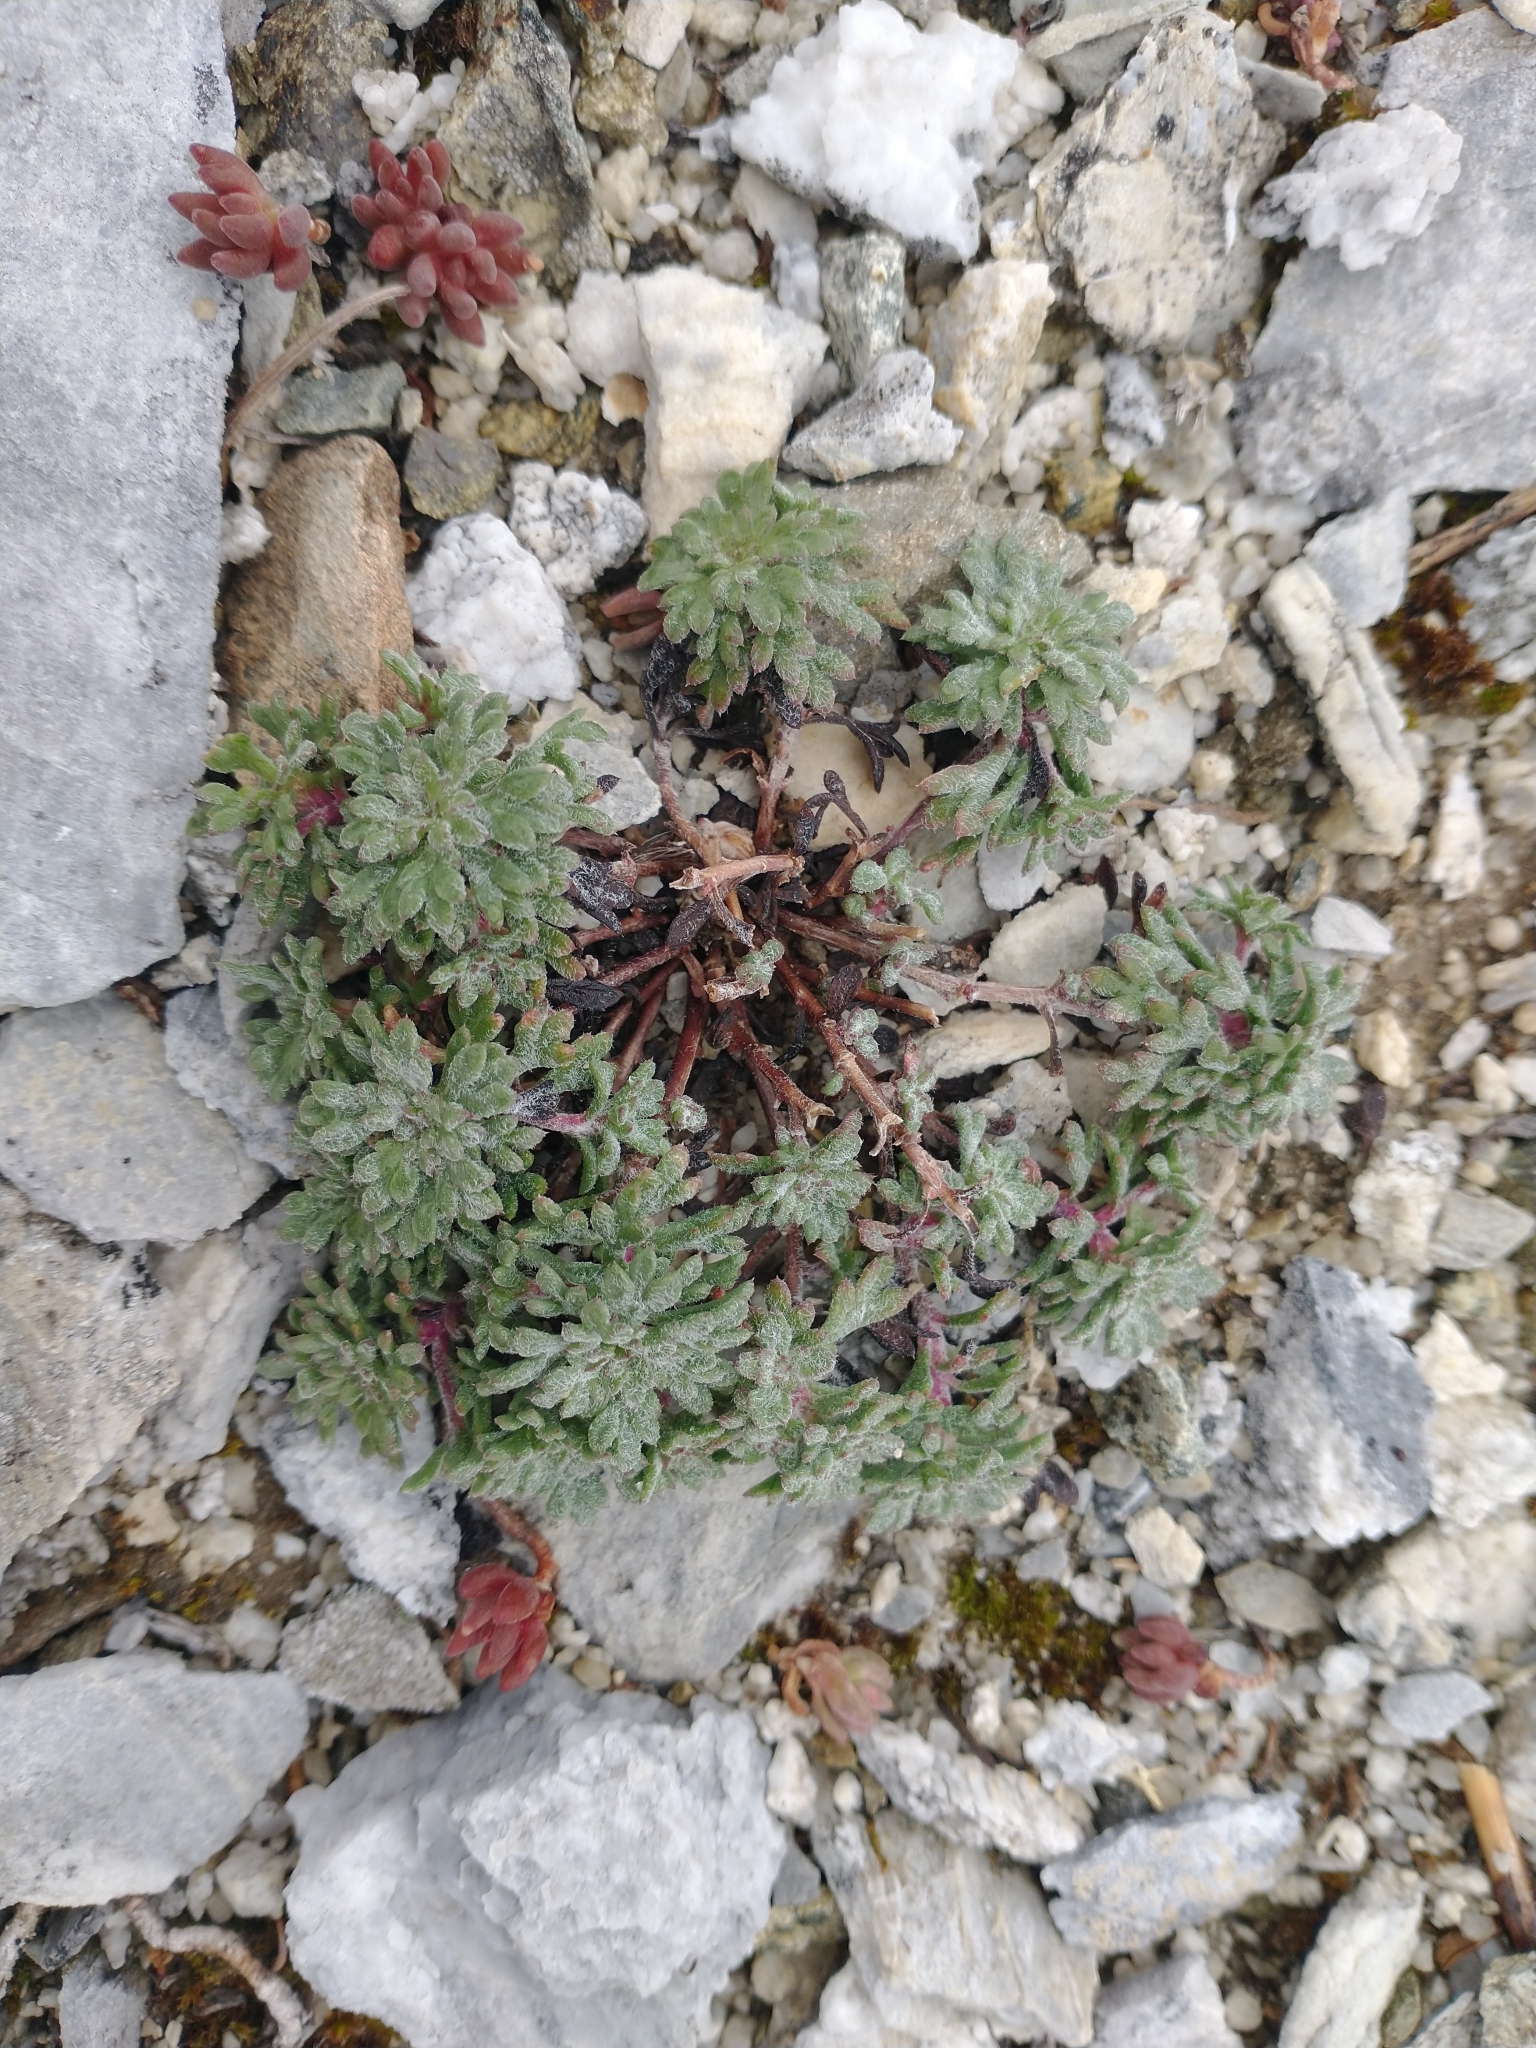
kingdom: Plantae
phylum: Tracheophyta
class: Magnoliopsida
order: Ericales
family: Polemoniaceae
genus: Ipomopsis
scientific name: Ipomopsis congesta
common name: Ball-head gilia
